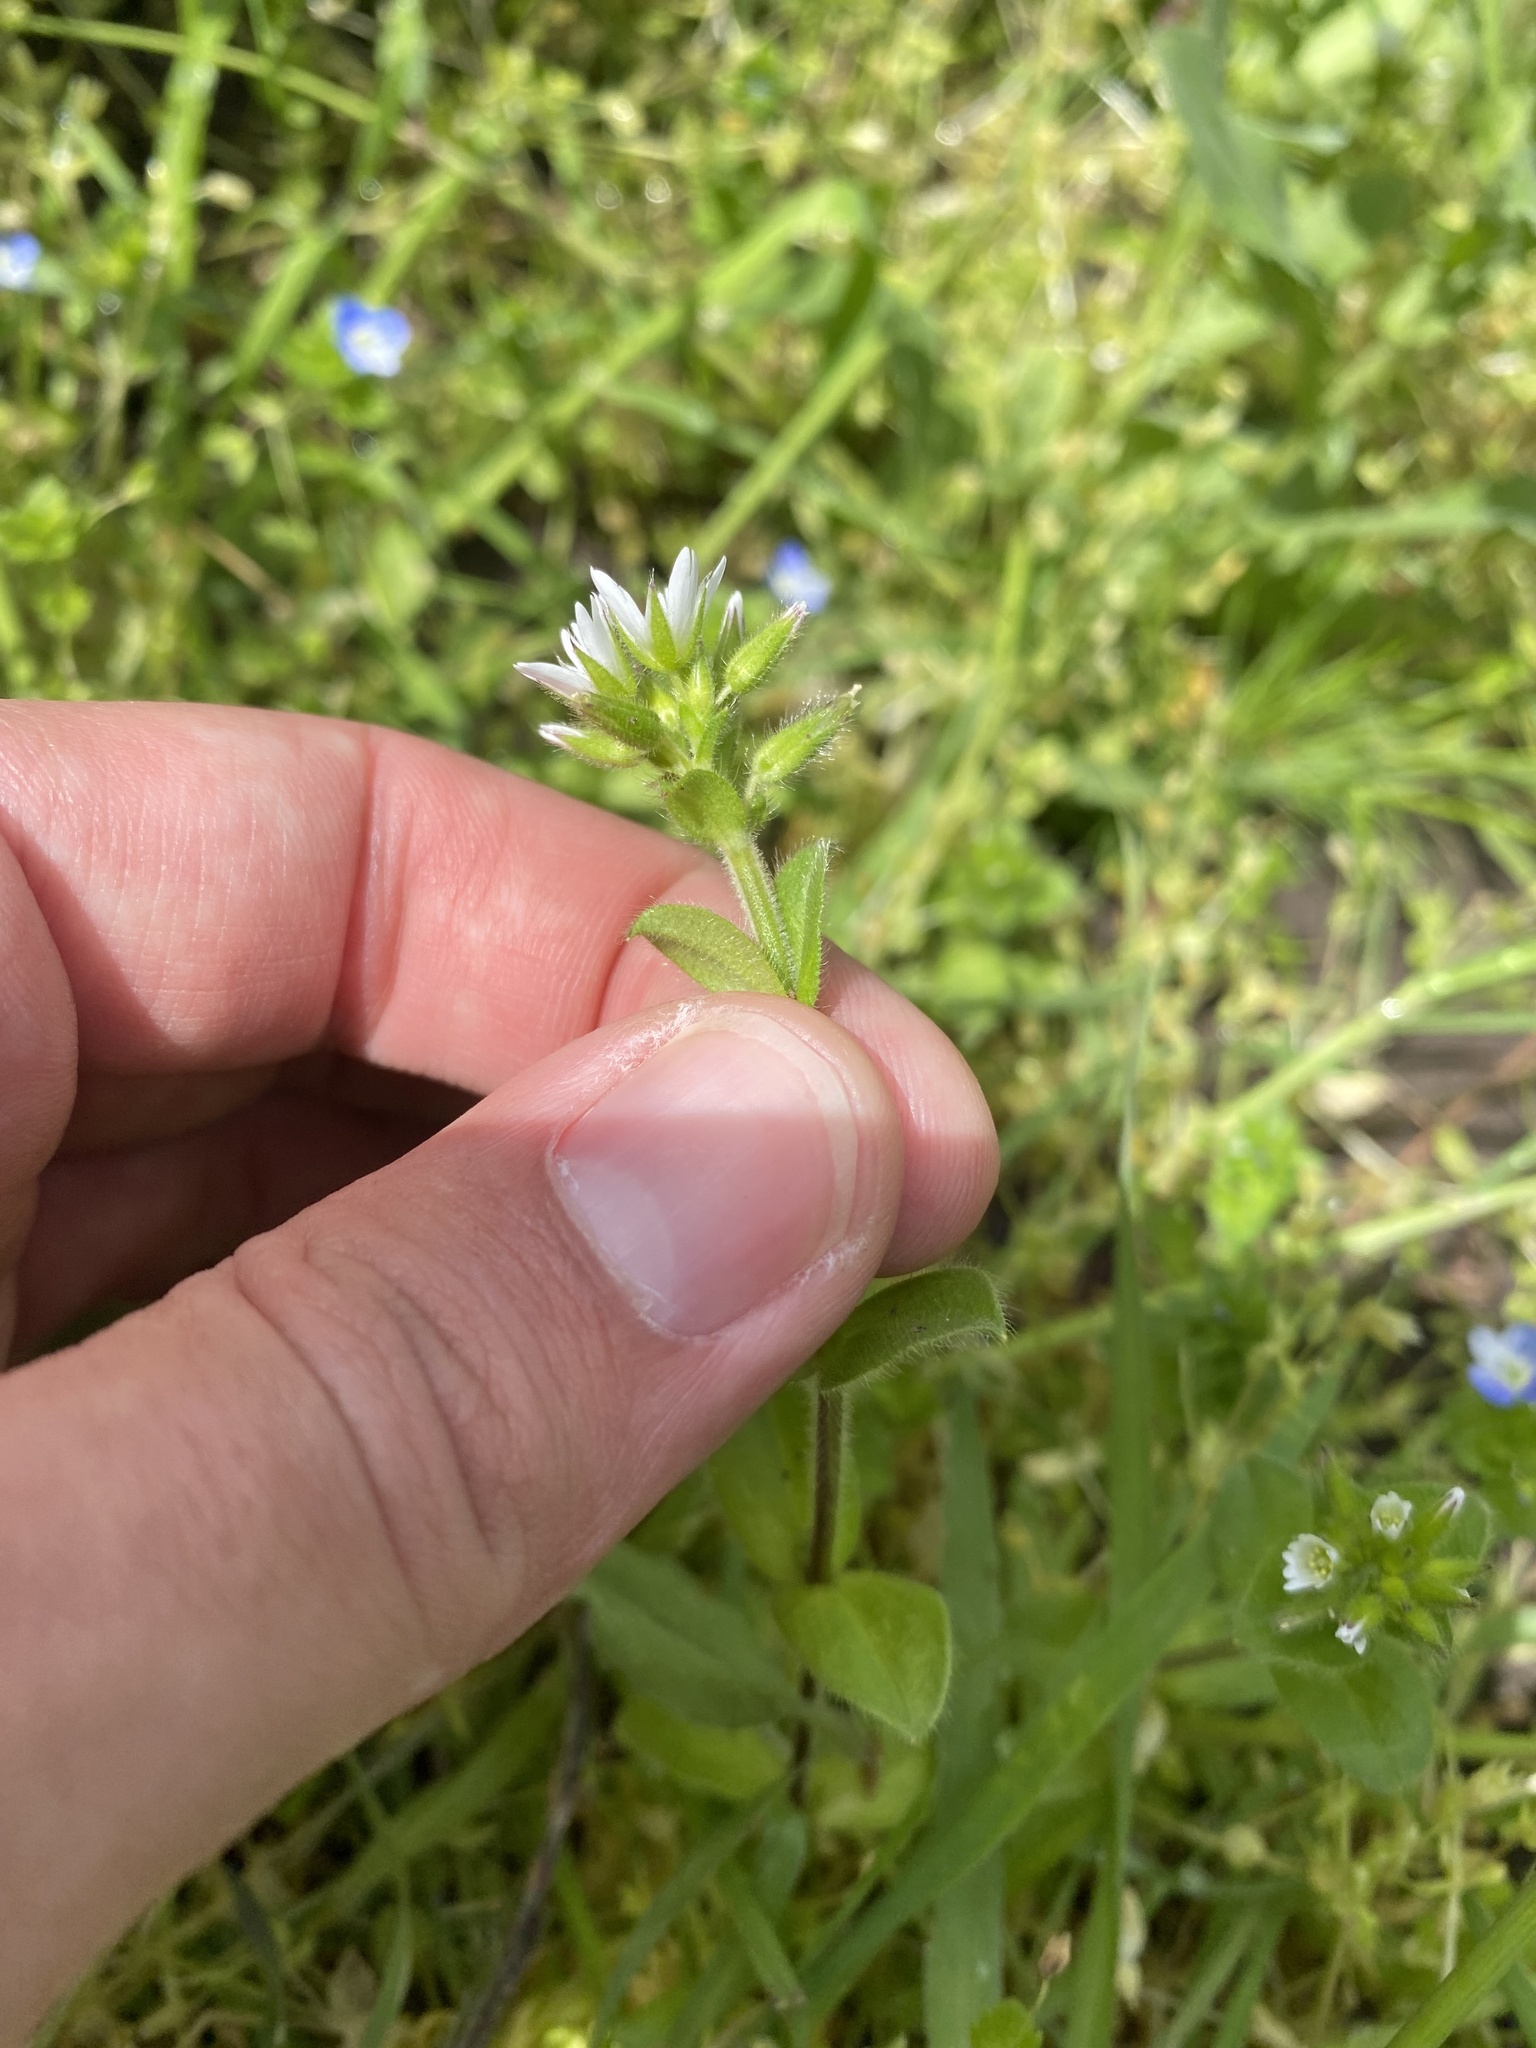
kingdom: Plantae
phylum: Tracheophyta
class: Magnoliopsida
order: Caryophyllales
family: Caryophyllaceae
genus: Cerastium
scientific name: Cerastium glomeratum
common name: Sticky chickweed
